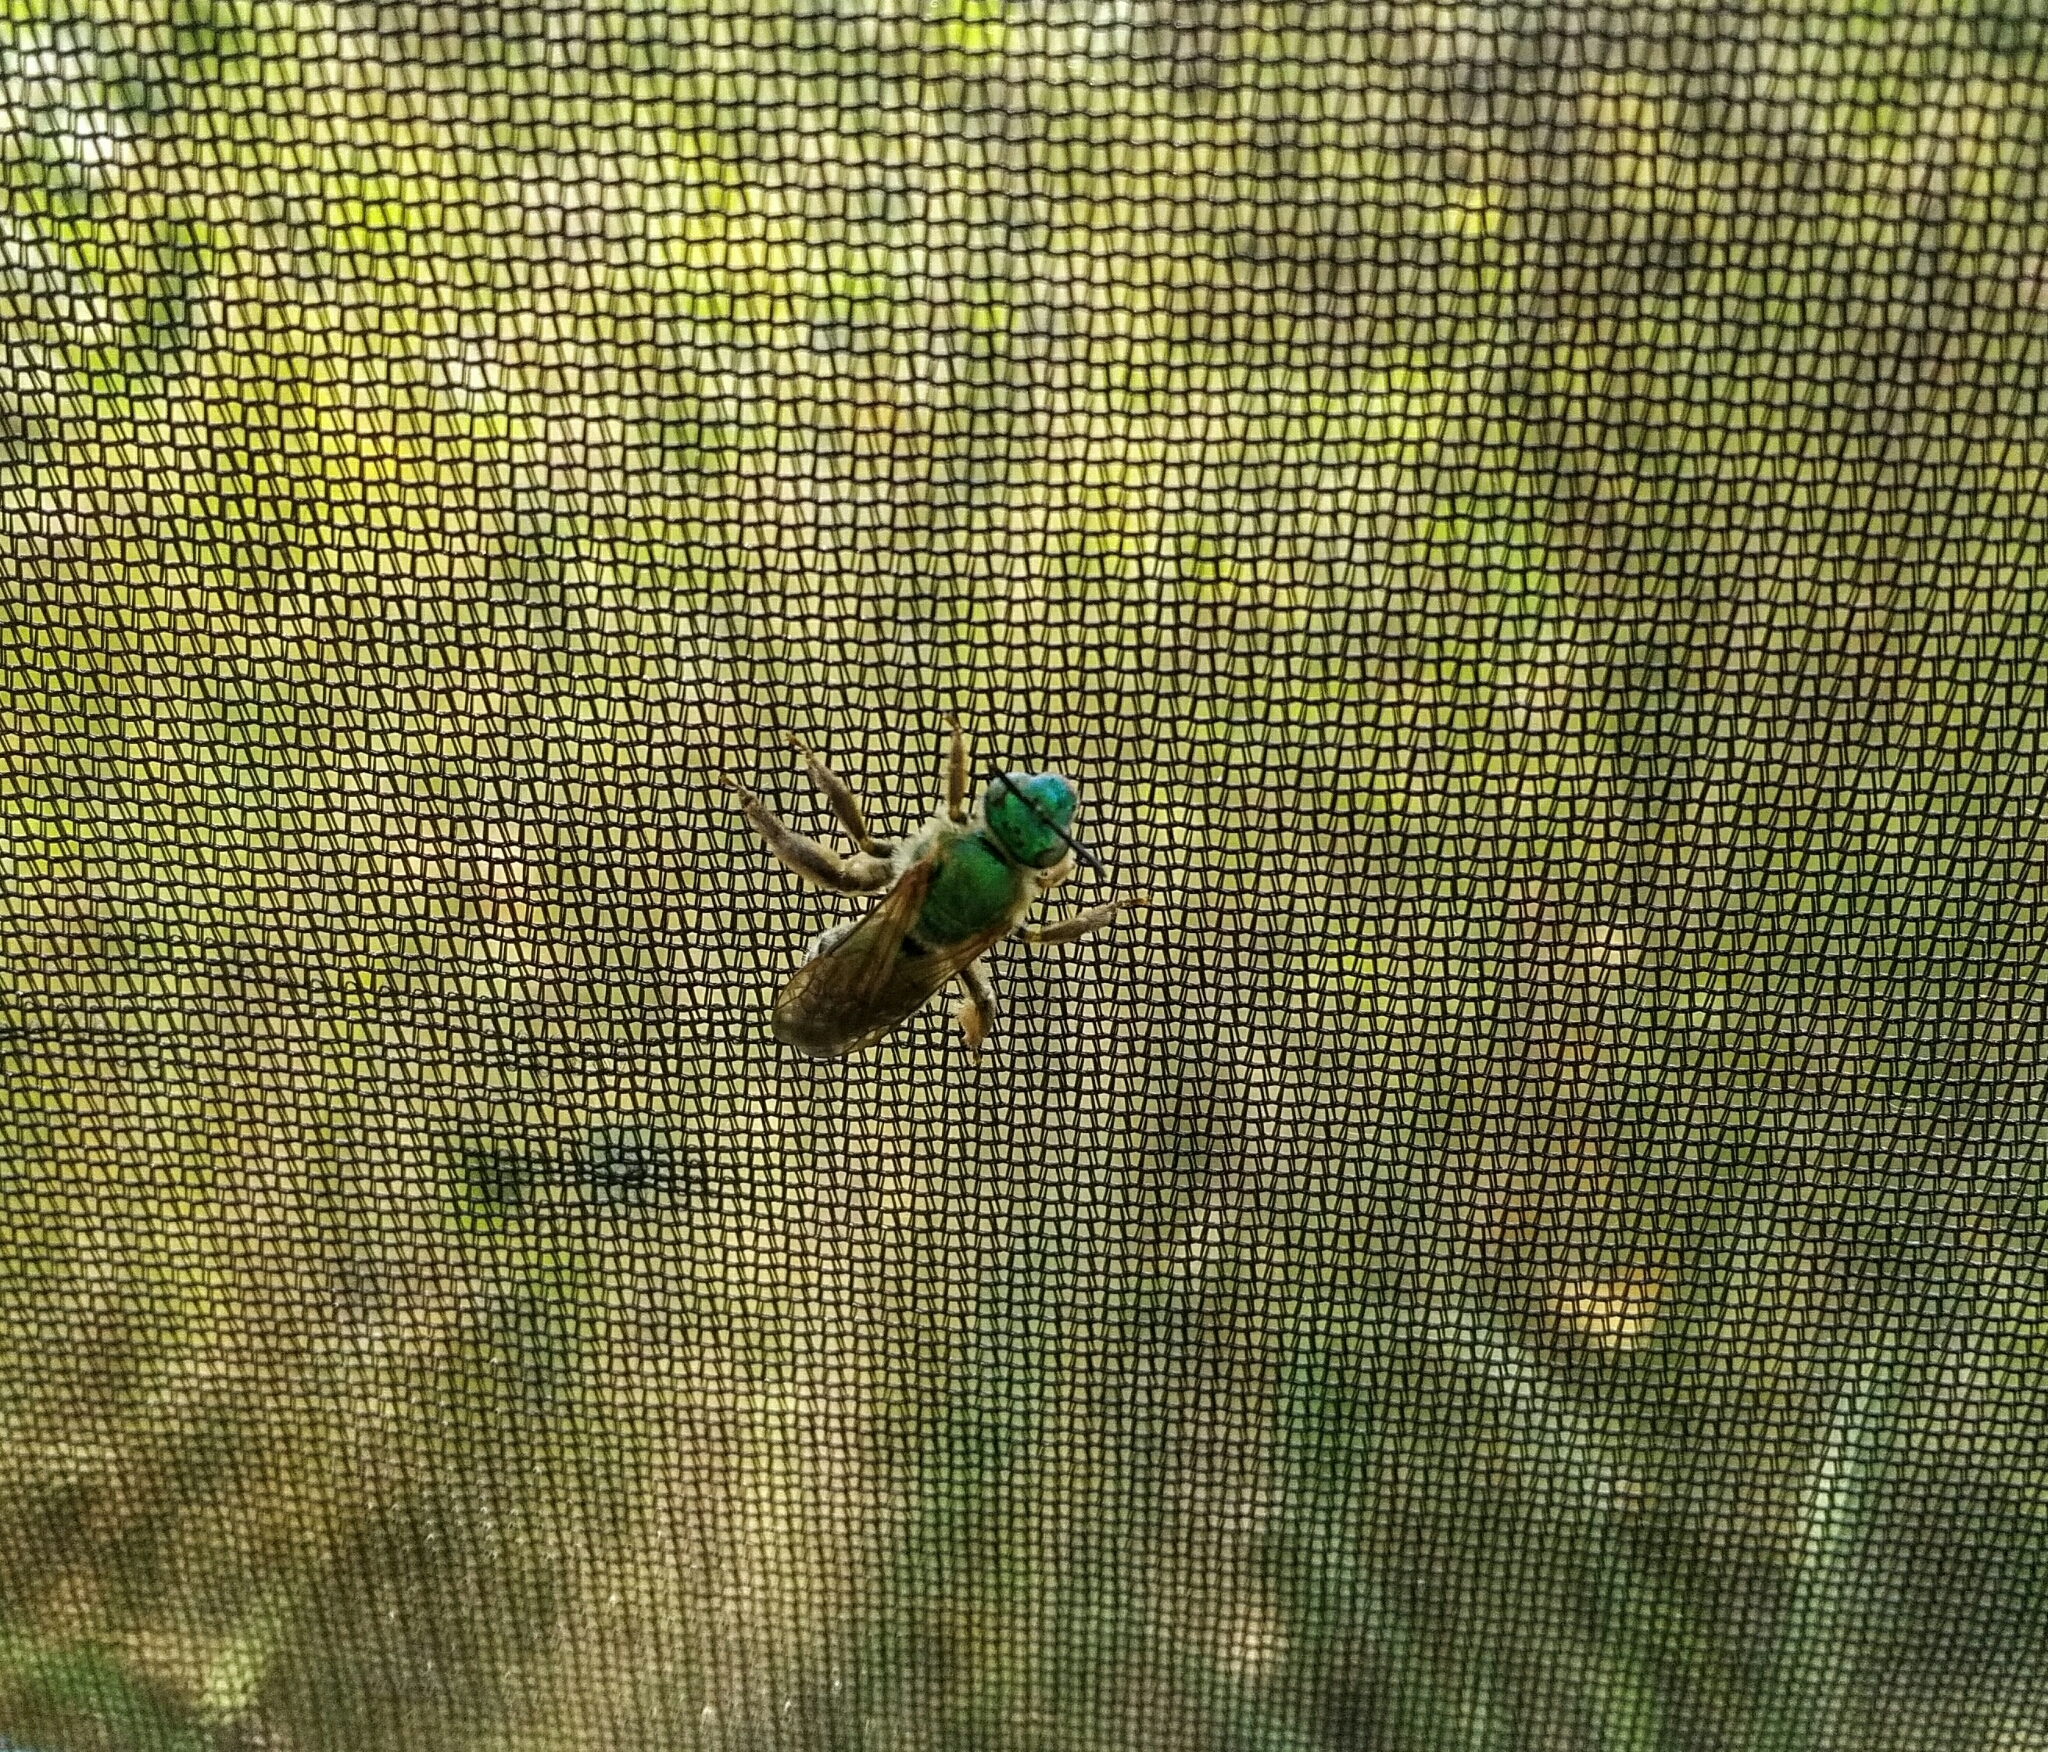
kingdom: Animalia
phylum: Arthropoda
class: Insecta
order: Hymenoptera
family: Halictidae
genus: Agapostemon
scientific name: Agapostemon virescens
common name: Bicolored striped sweat bee
